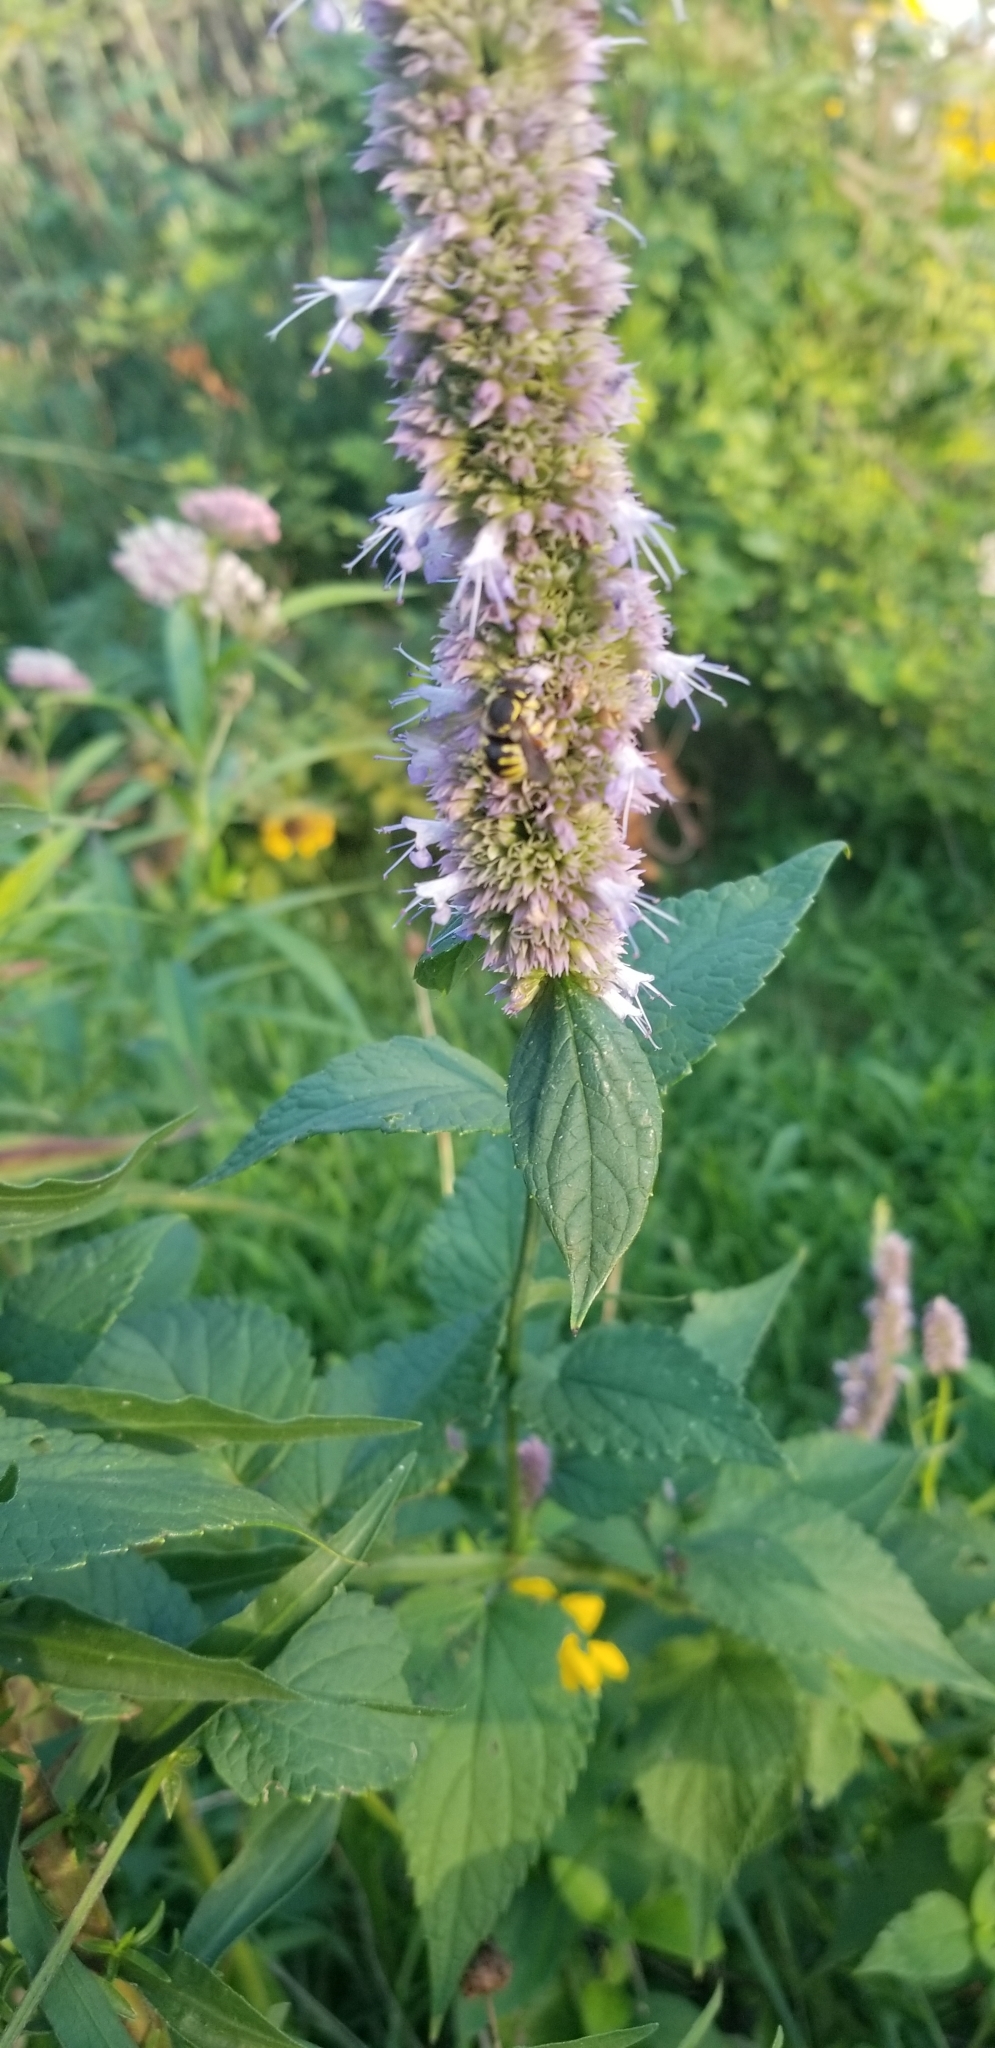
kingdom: Animalia
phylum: Arthropoda
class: Insecta
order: Hymenoptera
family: Megachilidae
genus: Anthidium
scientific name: Anthidium manicatum
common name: Wool carder bee
